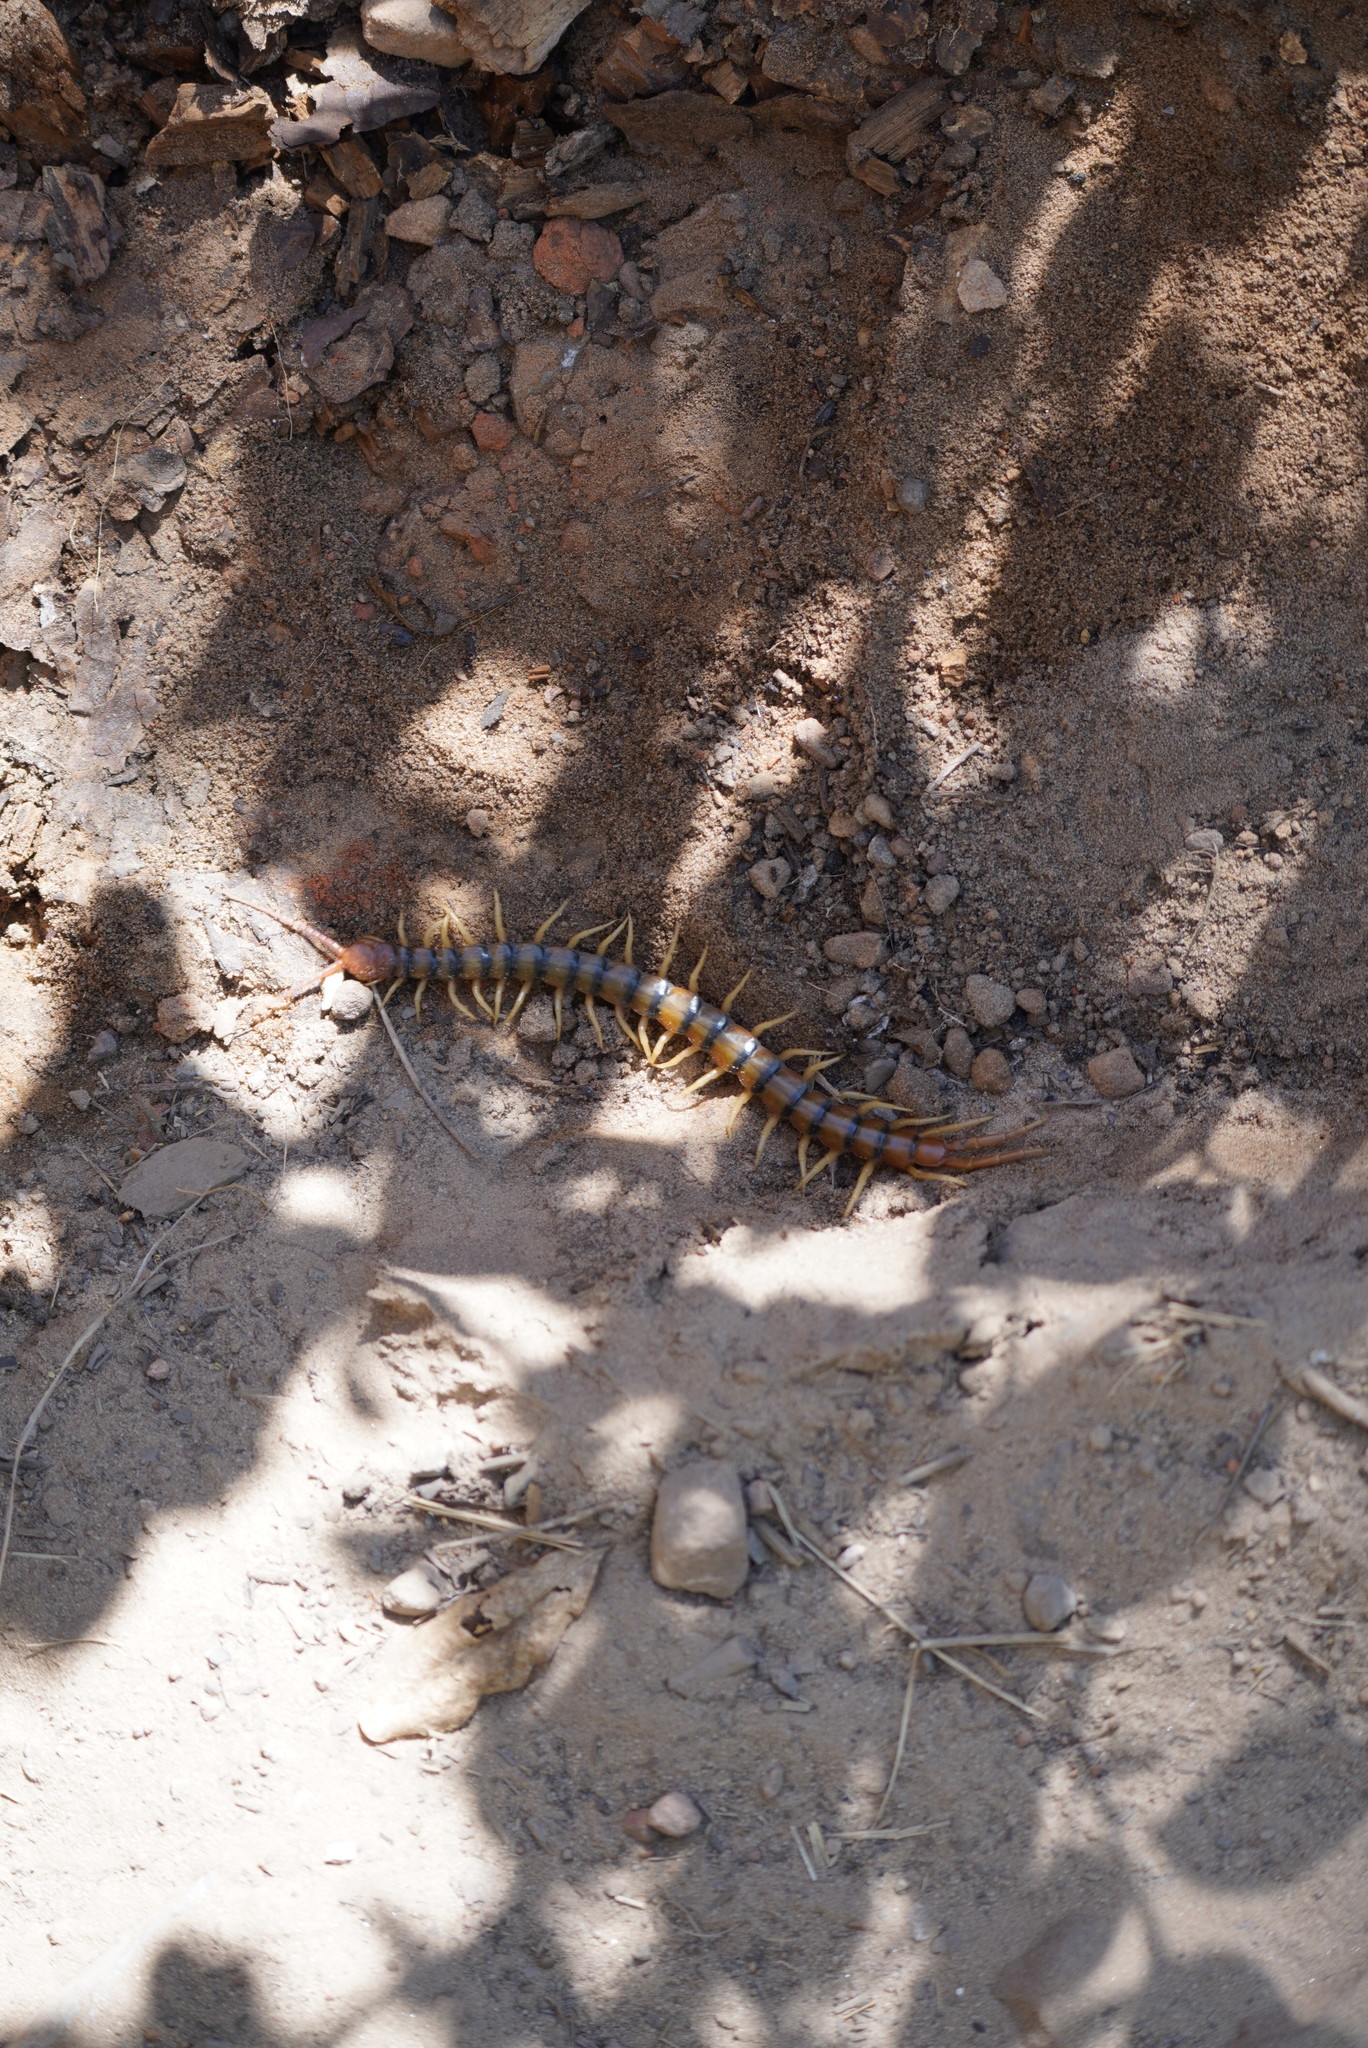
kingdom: Animalia
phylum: Arthropoda
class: Chilopoda
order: Scolopendromorpha
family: Scolopendridae
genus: Scolopendra
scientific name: Scolopendra polymorpha
